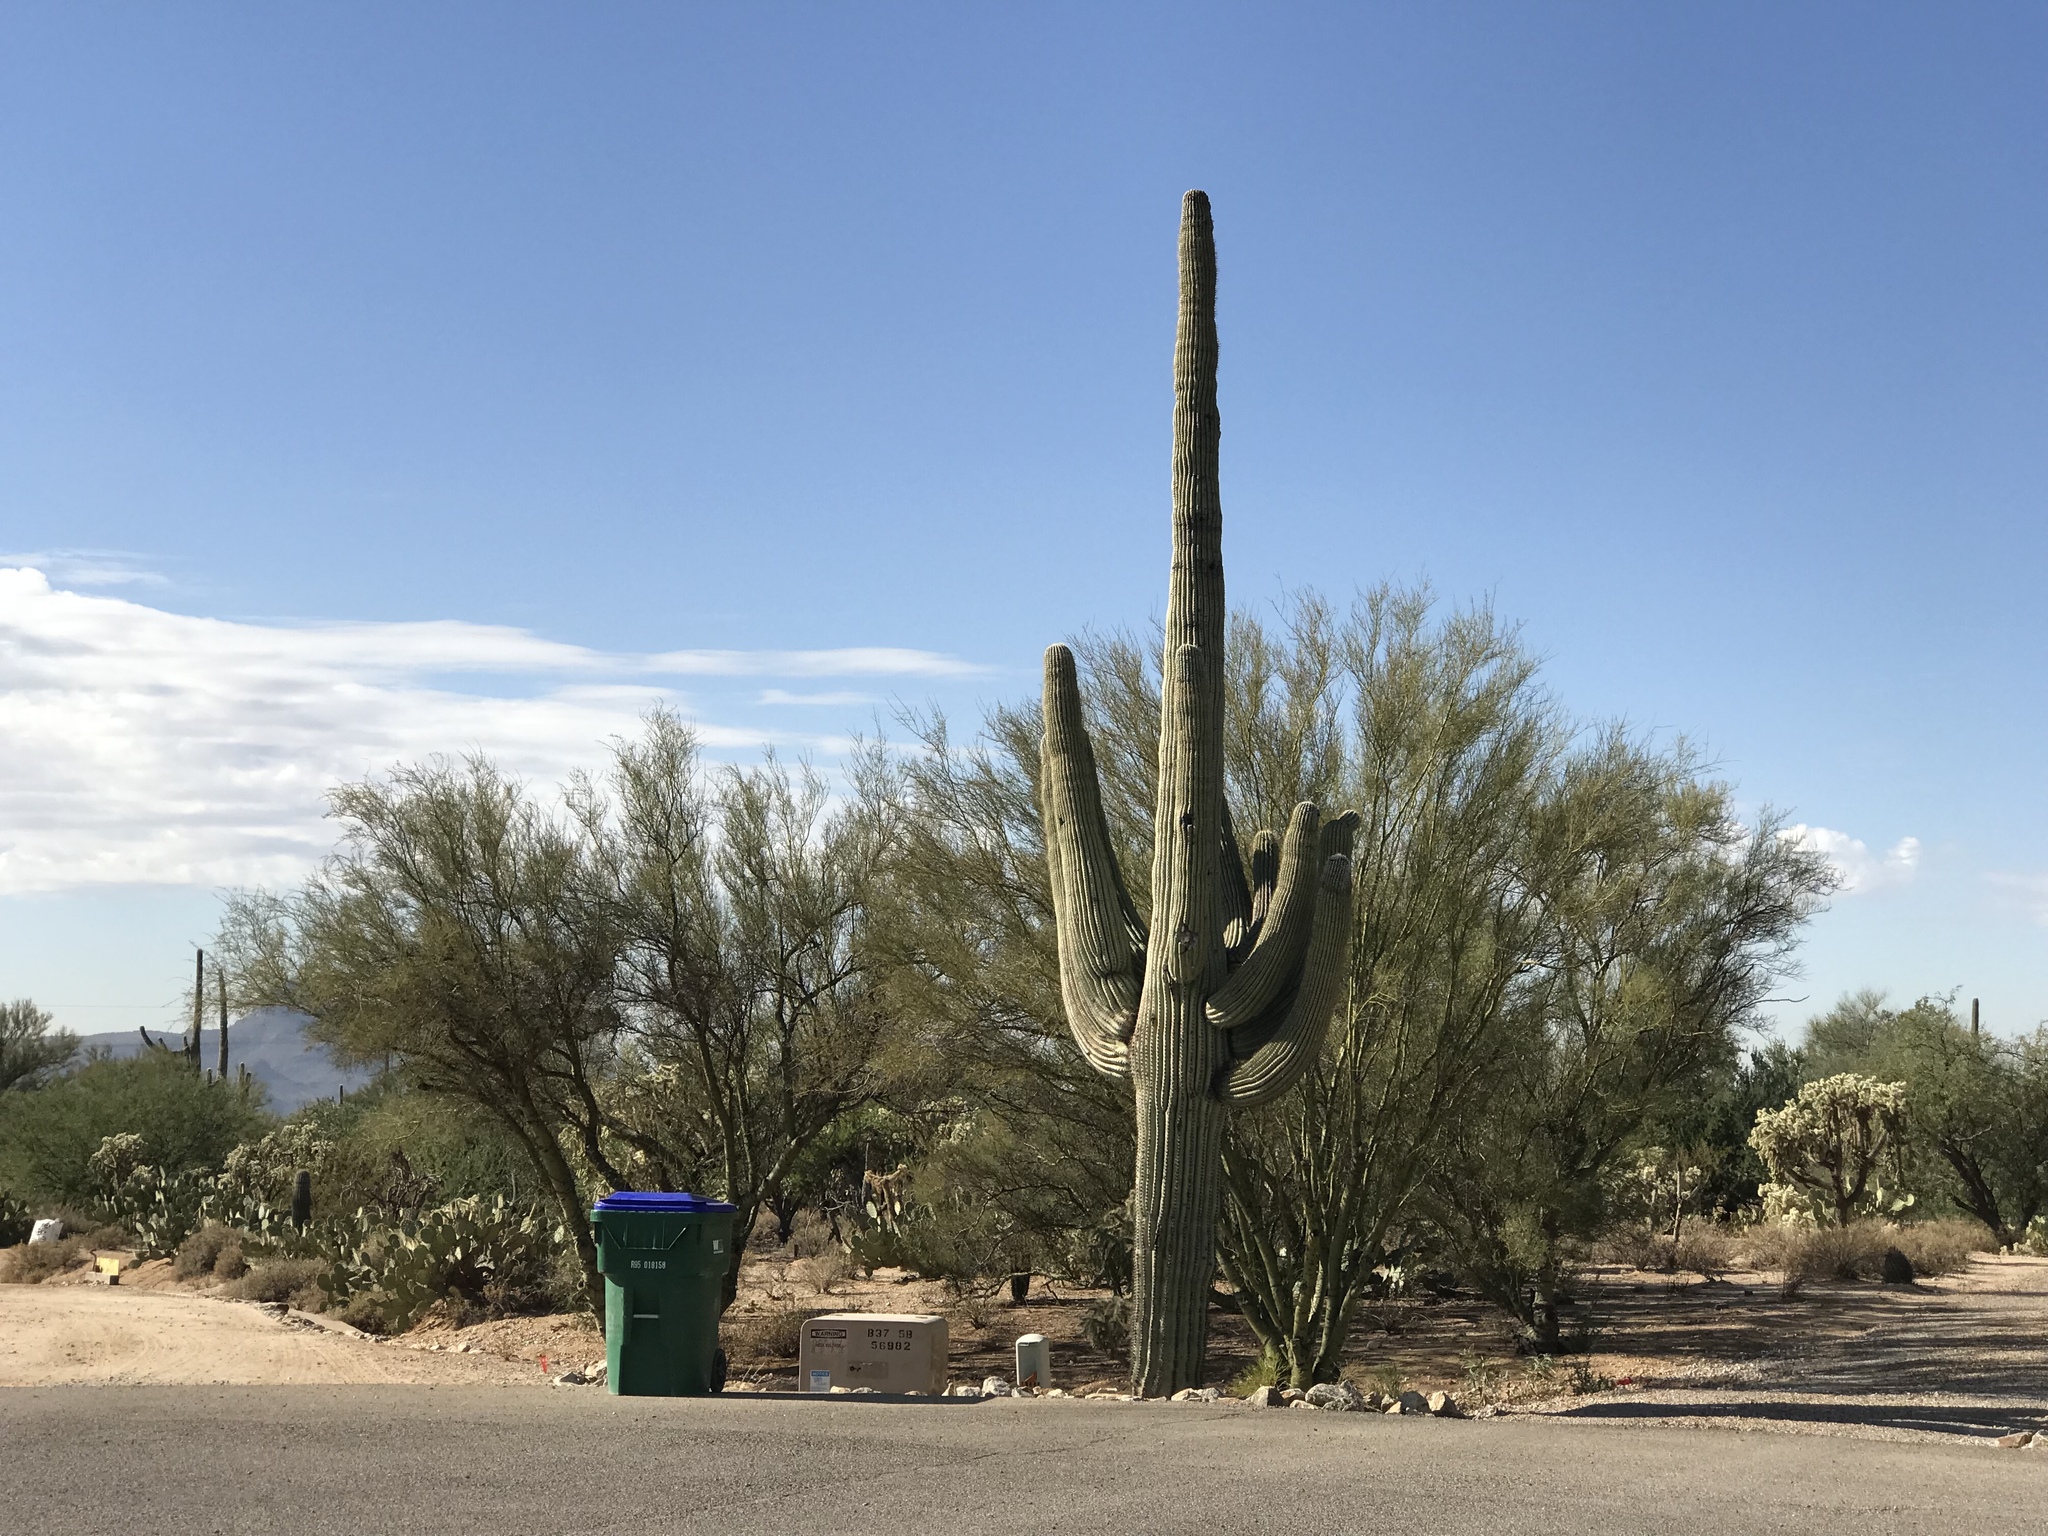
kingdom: Plantae
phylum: Tracheophyta
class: Magnoliopsida
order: Caryophyllales
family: Cactaceae
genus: Carnegiea
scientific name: Carnegiea gigantea
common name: Saguaro
